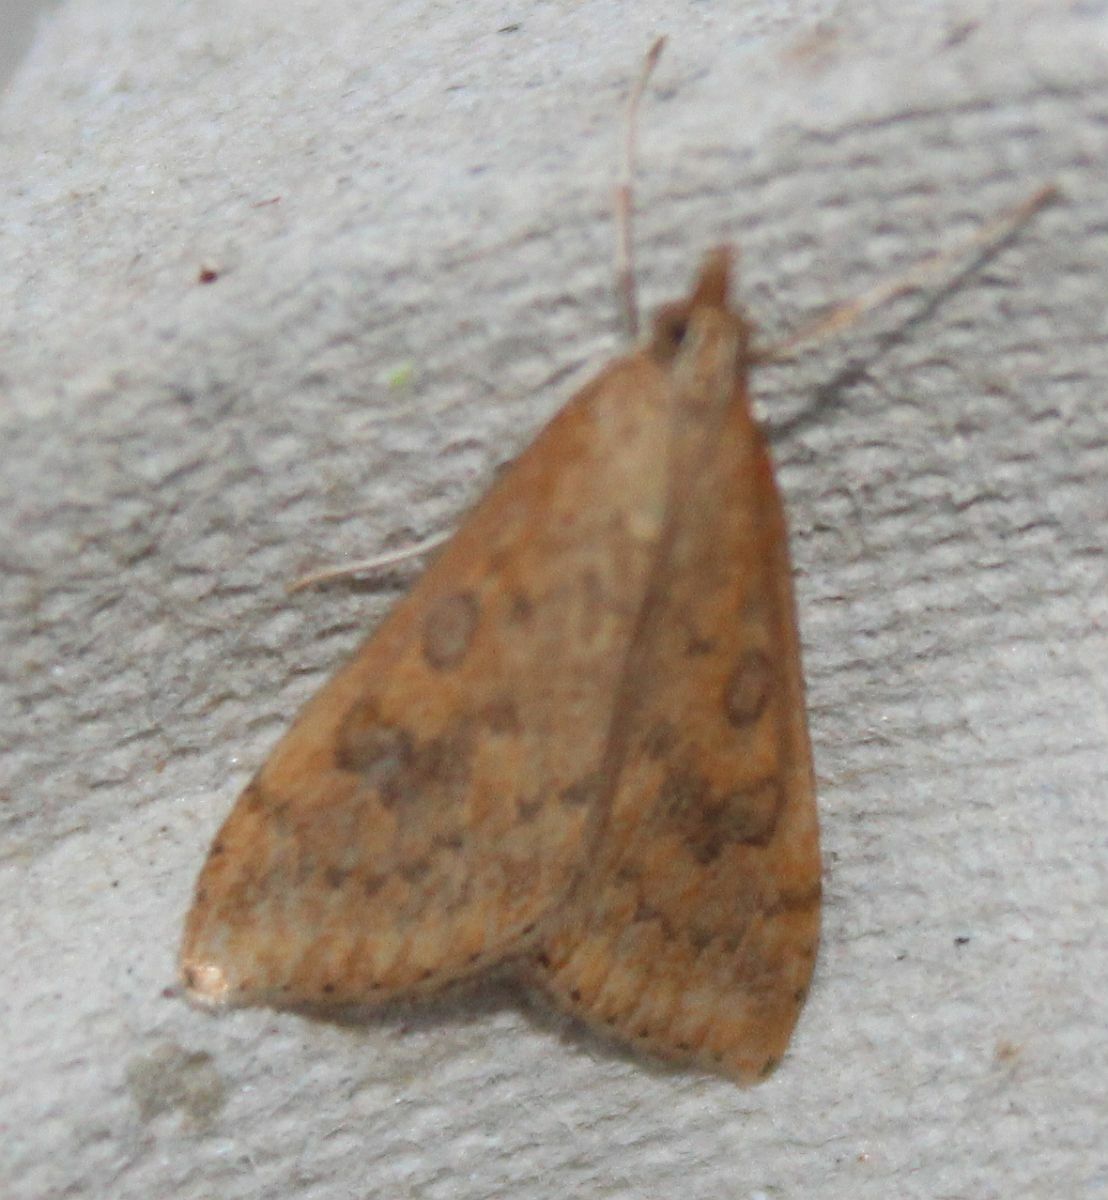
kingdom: Animalia
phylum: Arthropoda
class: Insecta
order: Lepidoptera
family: Crambidae
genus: Udea
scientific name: Udea ferrugalis
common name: Rusty dot
